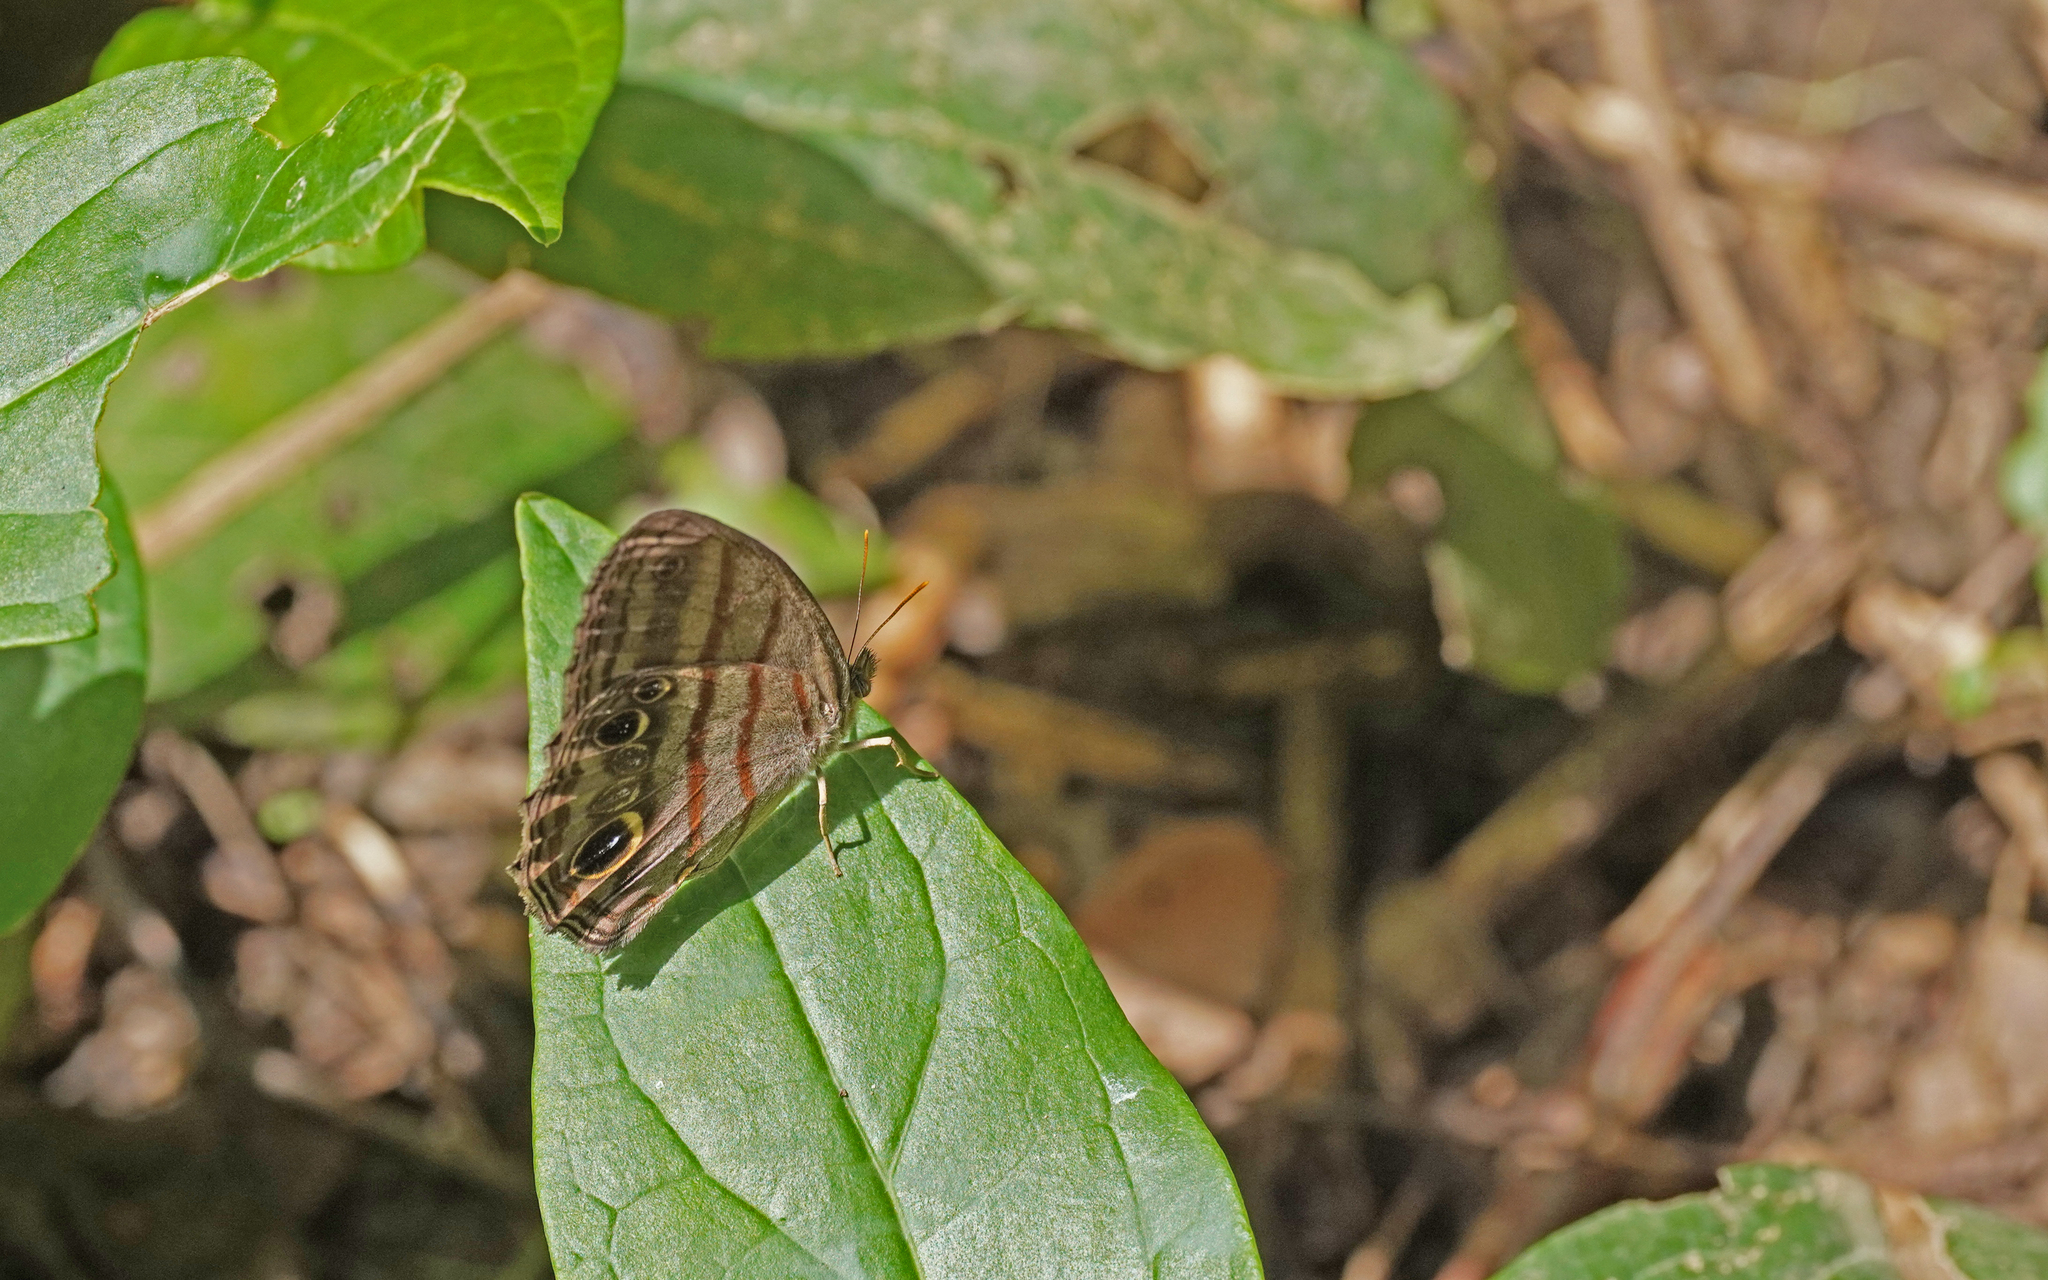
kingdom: Animalia
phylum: Arthropoda
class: Insecta
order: Lepidoptera
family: Nymphalidae
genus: Magneuptychia
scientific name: Magneuptychia libye
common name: Blue-gray satyr
